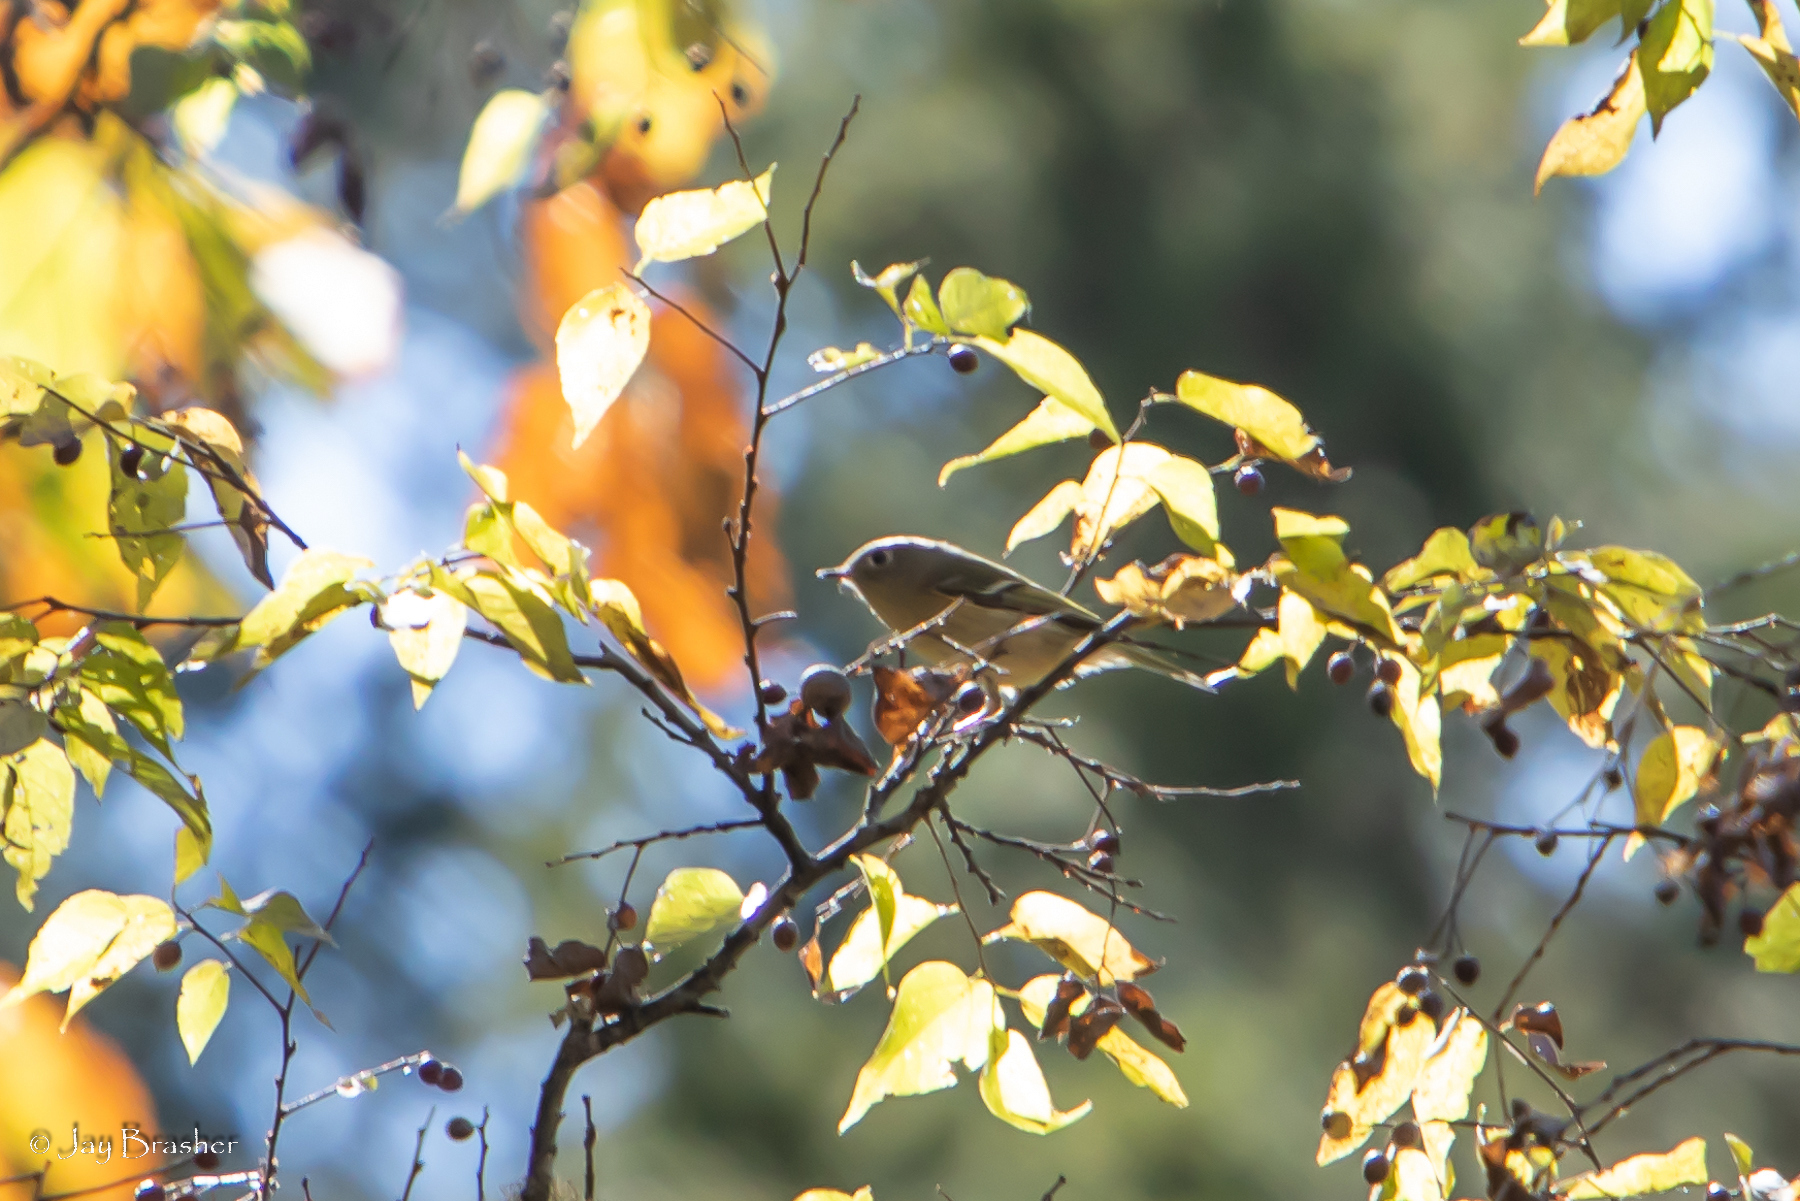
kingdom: Animalia
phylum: Chordata
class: Aves
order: Passeriformes
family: Regulidae
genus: Regulus
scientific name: Regulus calendula
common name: Ruby-crowned kinglet
